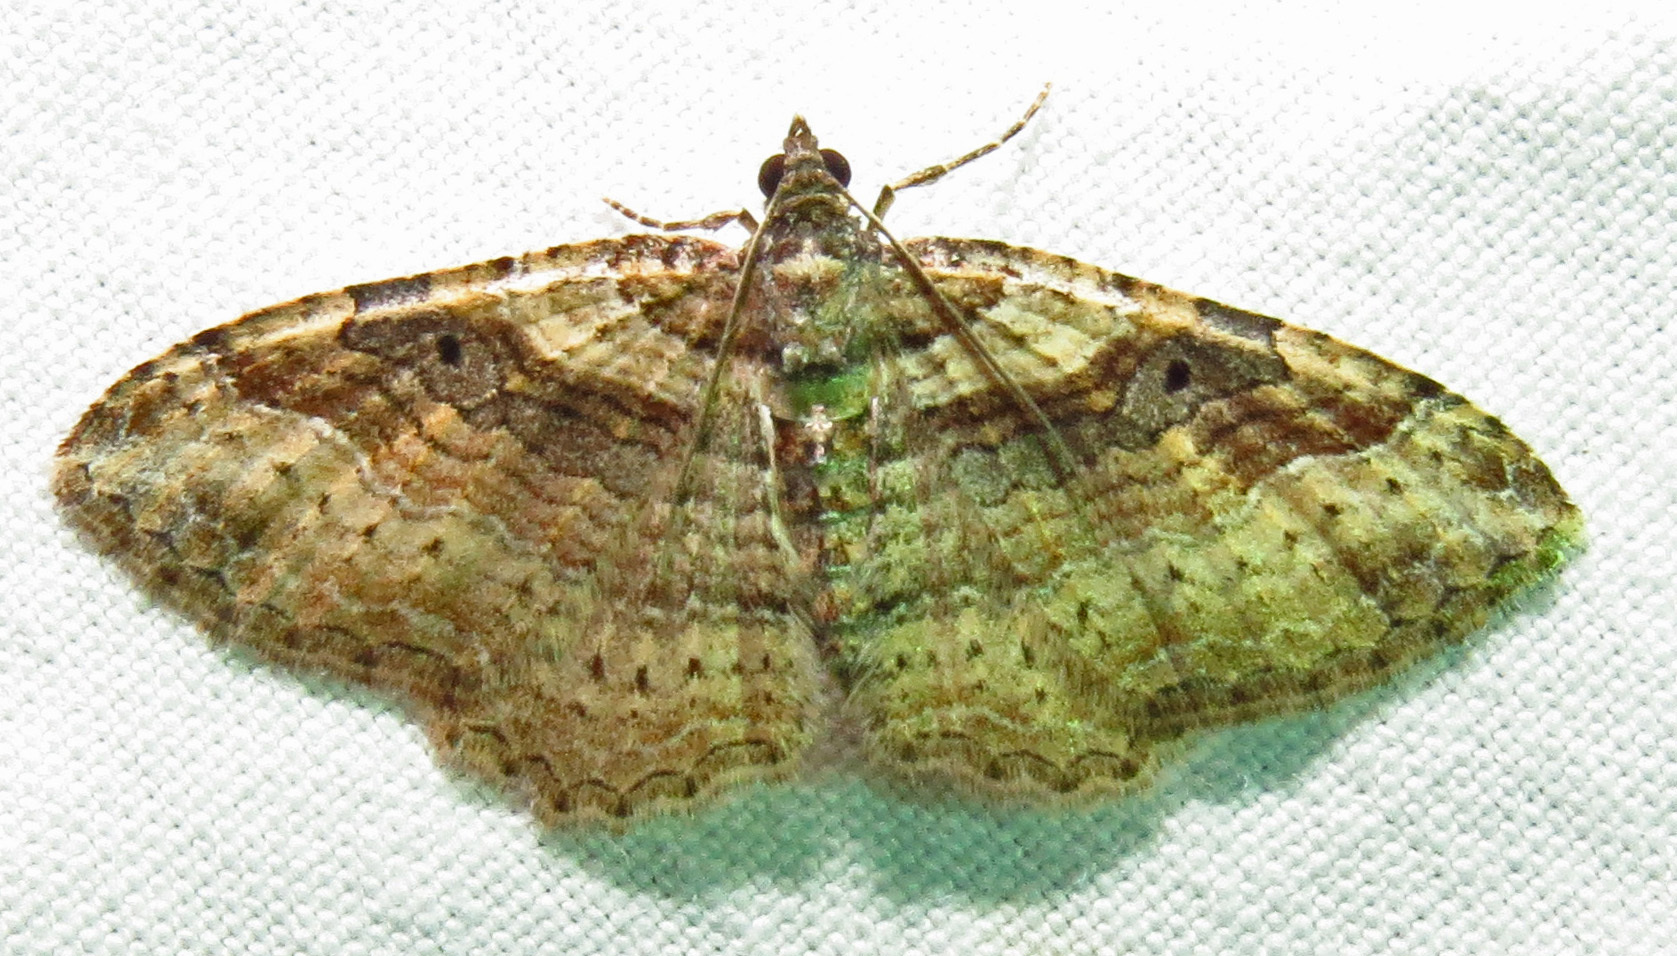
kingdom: Animalia
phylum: Arthropoda
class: Insecta
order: Lepidoptera
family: Geometridae
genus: Costaconvexa
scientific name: Costaconvexa centrostrigaria
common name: Bent-line carpet
